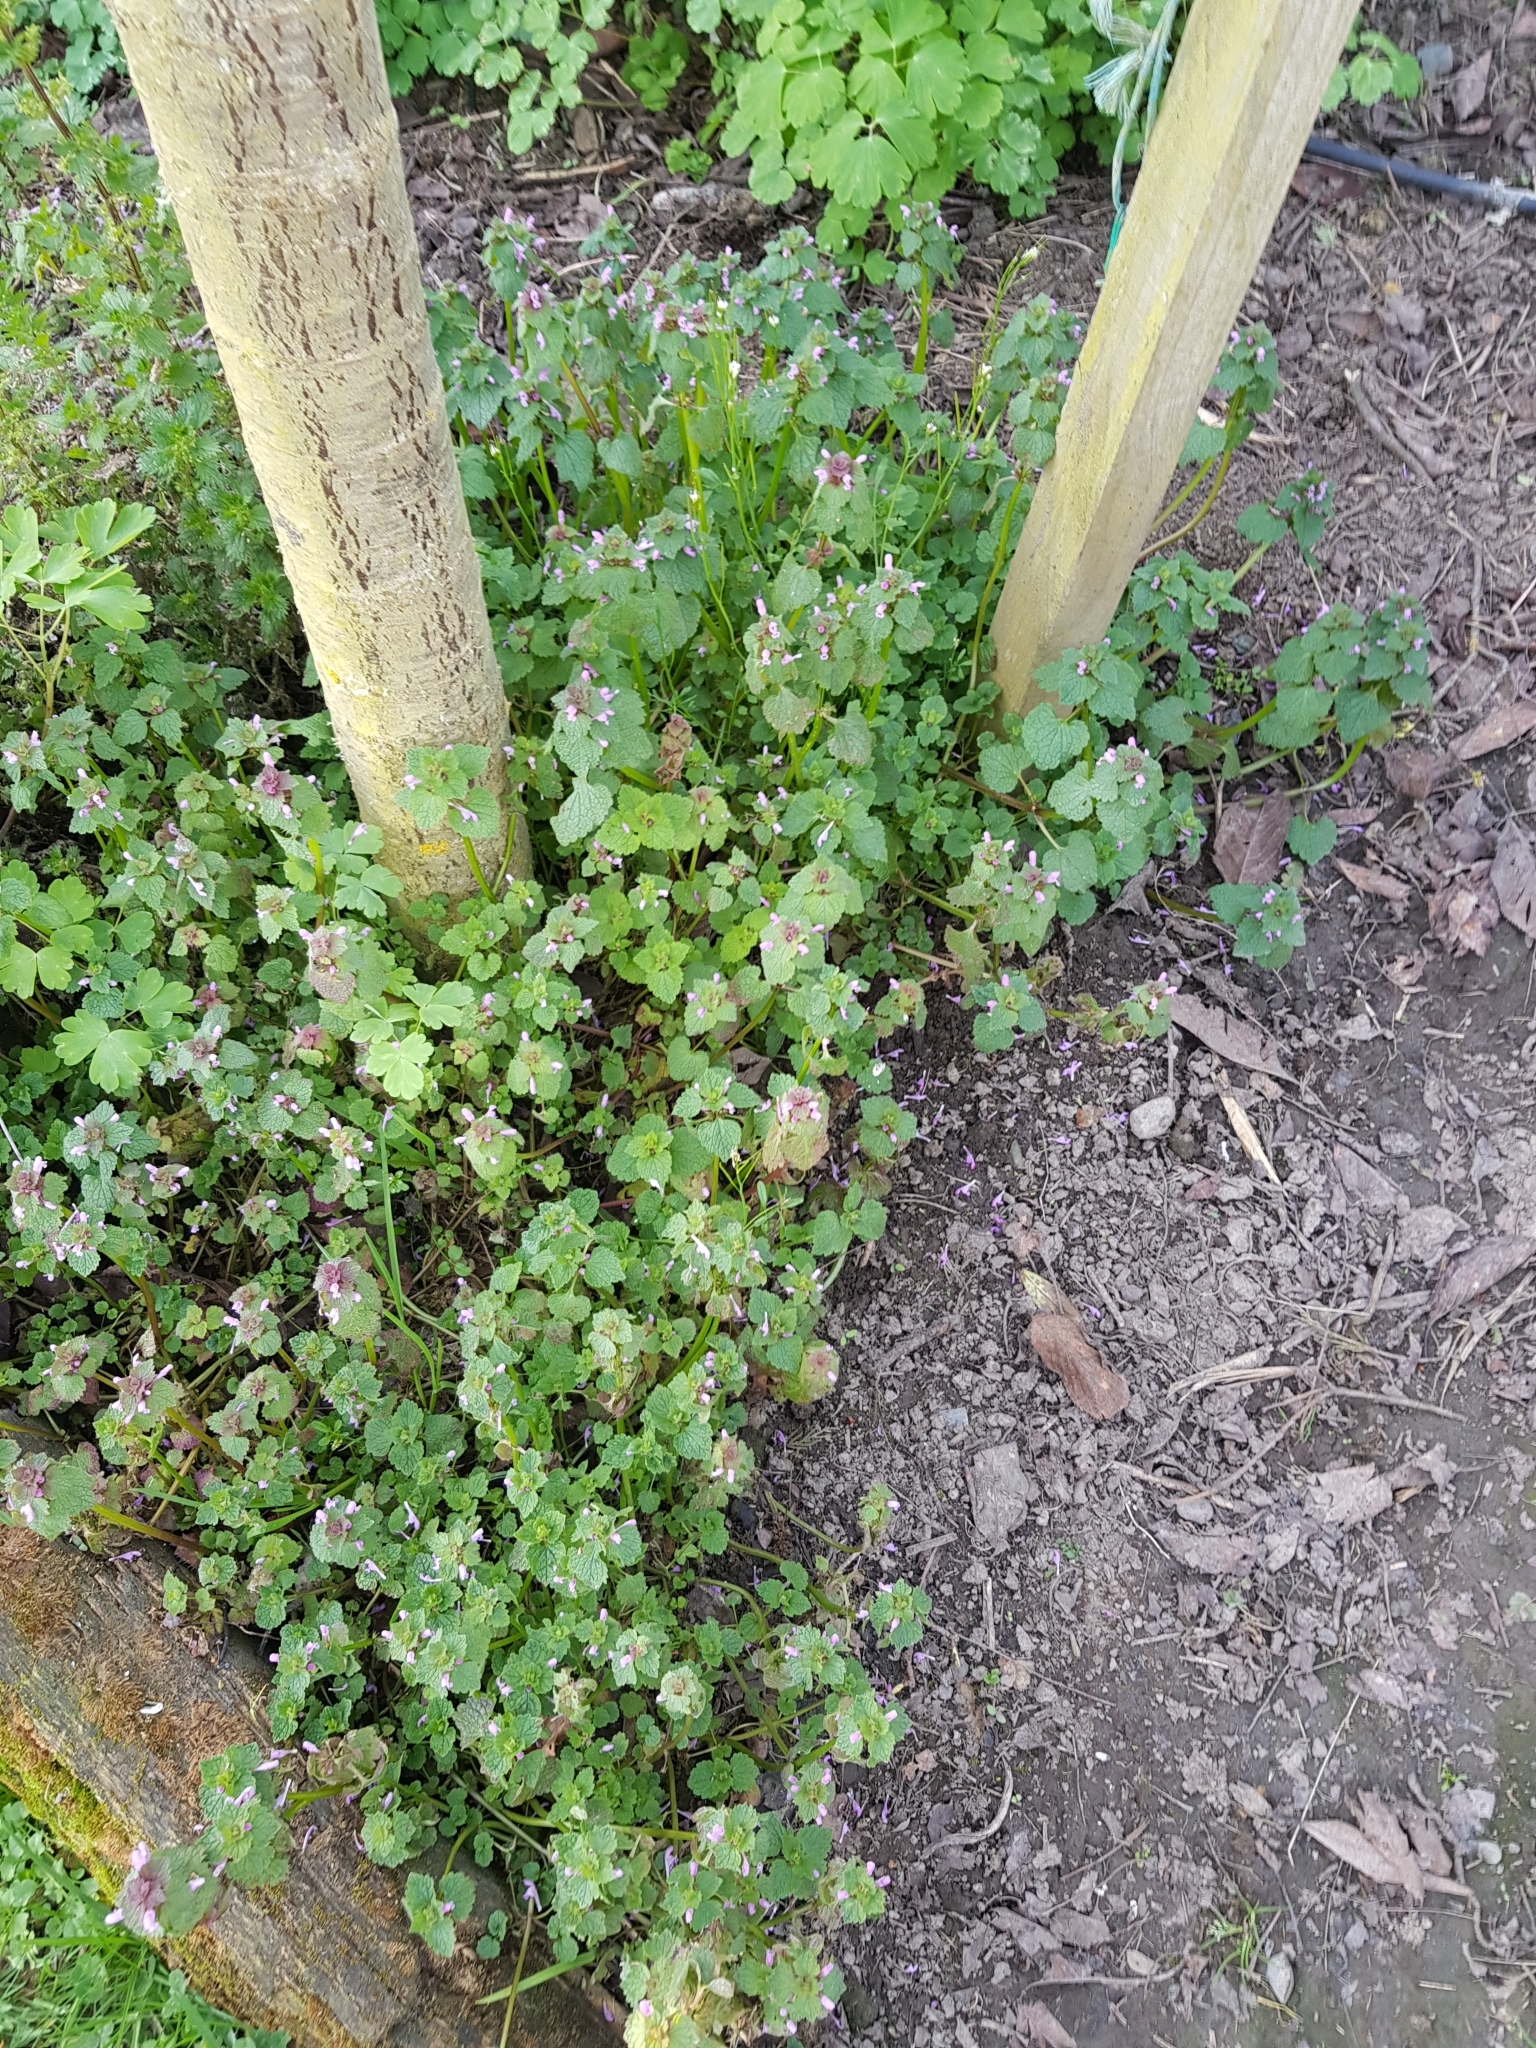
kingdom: Plantae
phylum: Tracheophyta
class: Magnoliopsida
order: Lamiales
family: Lamiaceae
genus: Lamium
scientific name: Lamium purpureum
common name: Red dead-nettle
